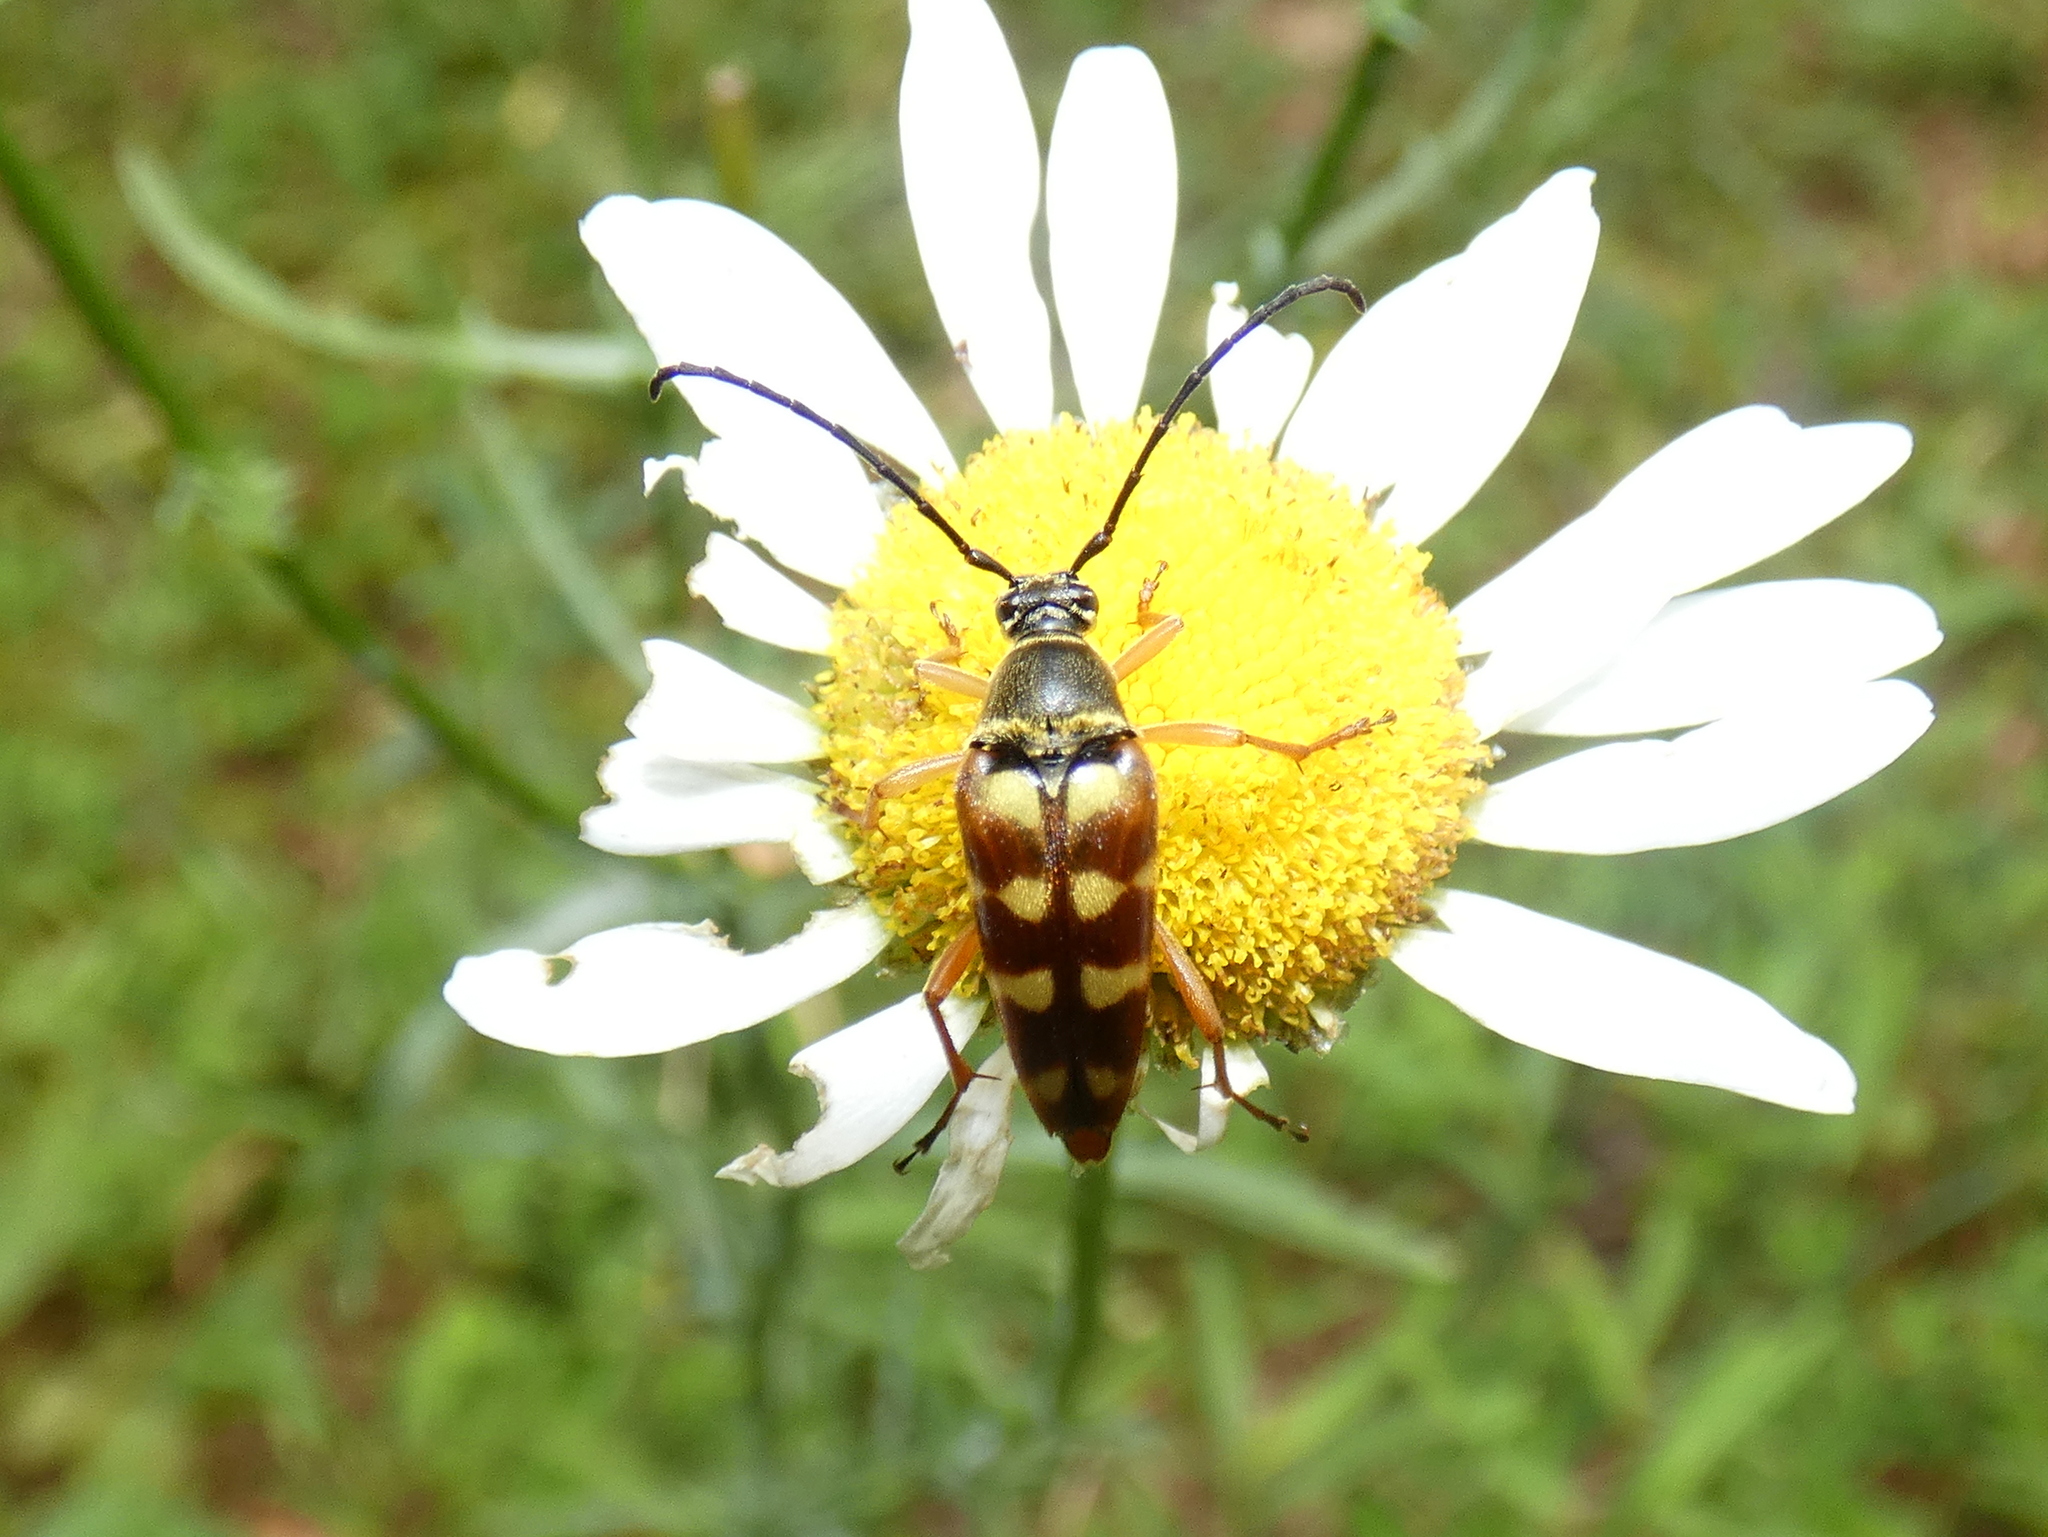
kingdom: Animalia
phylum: Arthropoda
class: Insecta
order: Coleoptera
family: Cerambycidae
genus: Typocerus
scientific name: Typocerus velutinus
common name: Banded longhorn beetle
